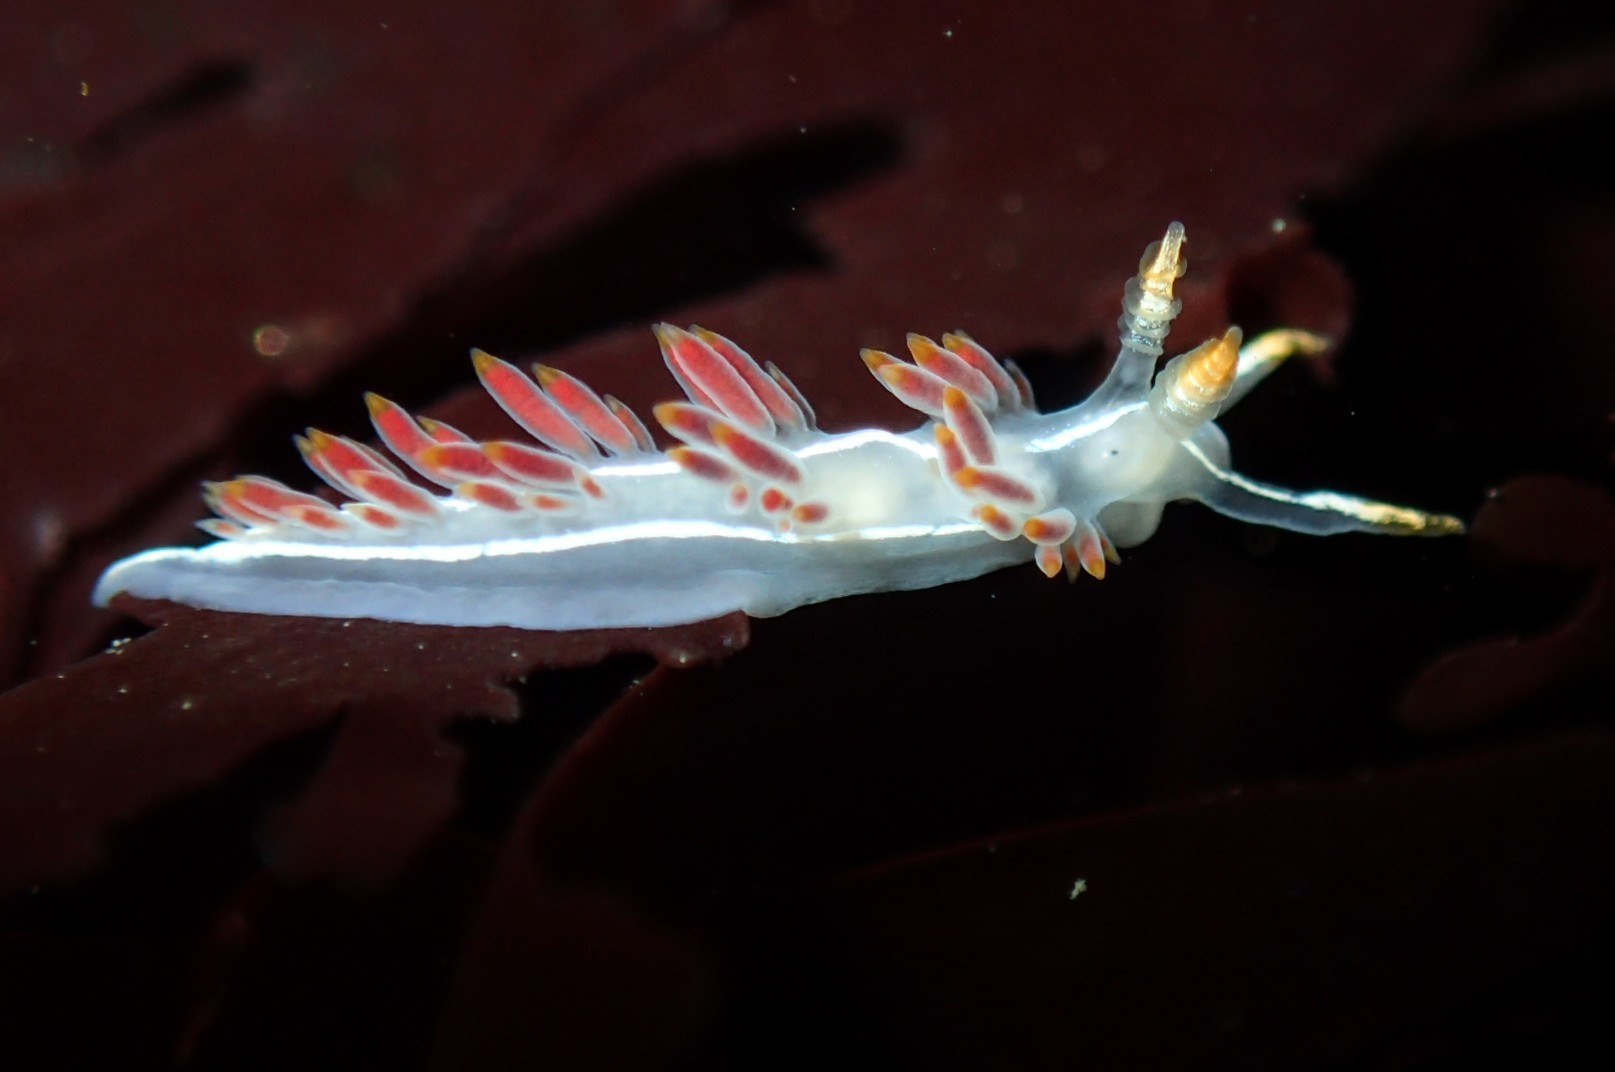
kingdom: Animalia
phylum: Mollusca
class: Gastropoda
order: Nudibranchia
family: Coryphellidae
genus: Coryphella
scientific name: Coryphella trilineata
